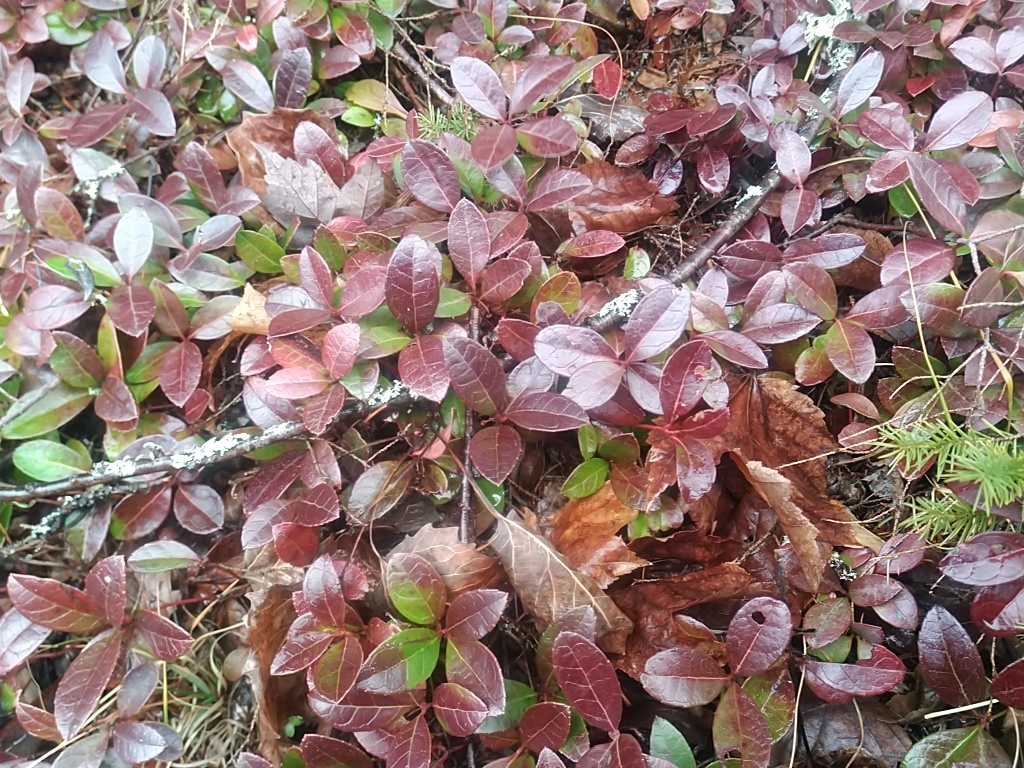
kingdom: Plantae
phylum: Tracheophyta
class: Magnoliopsida
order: Ericales
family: Ericaceae
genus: Gaultheria
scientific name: Gaultheria procumbens
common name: Checkerberry
